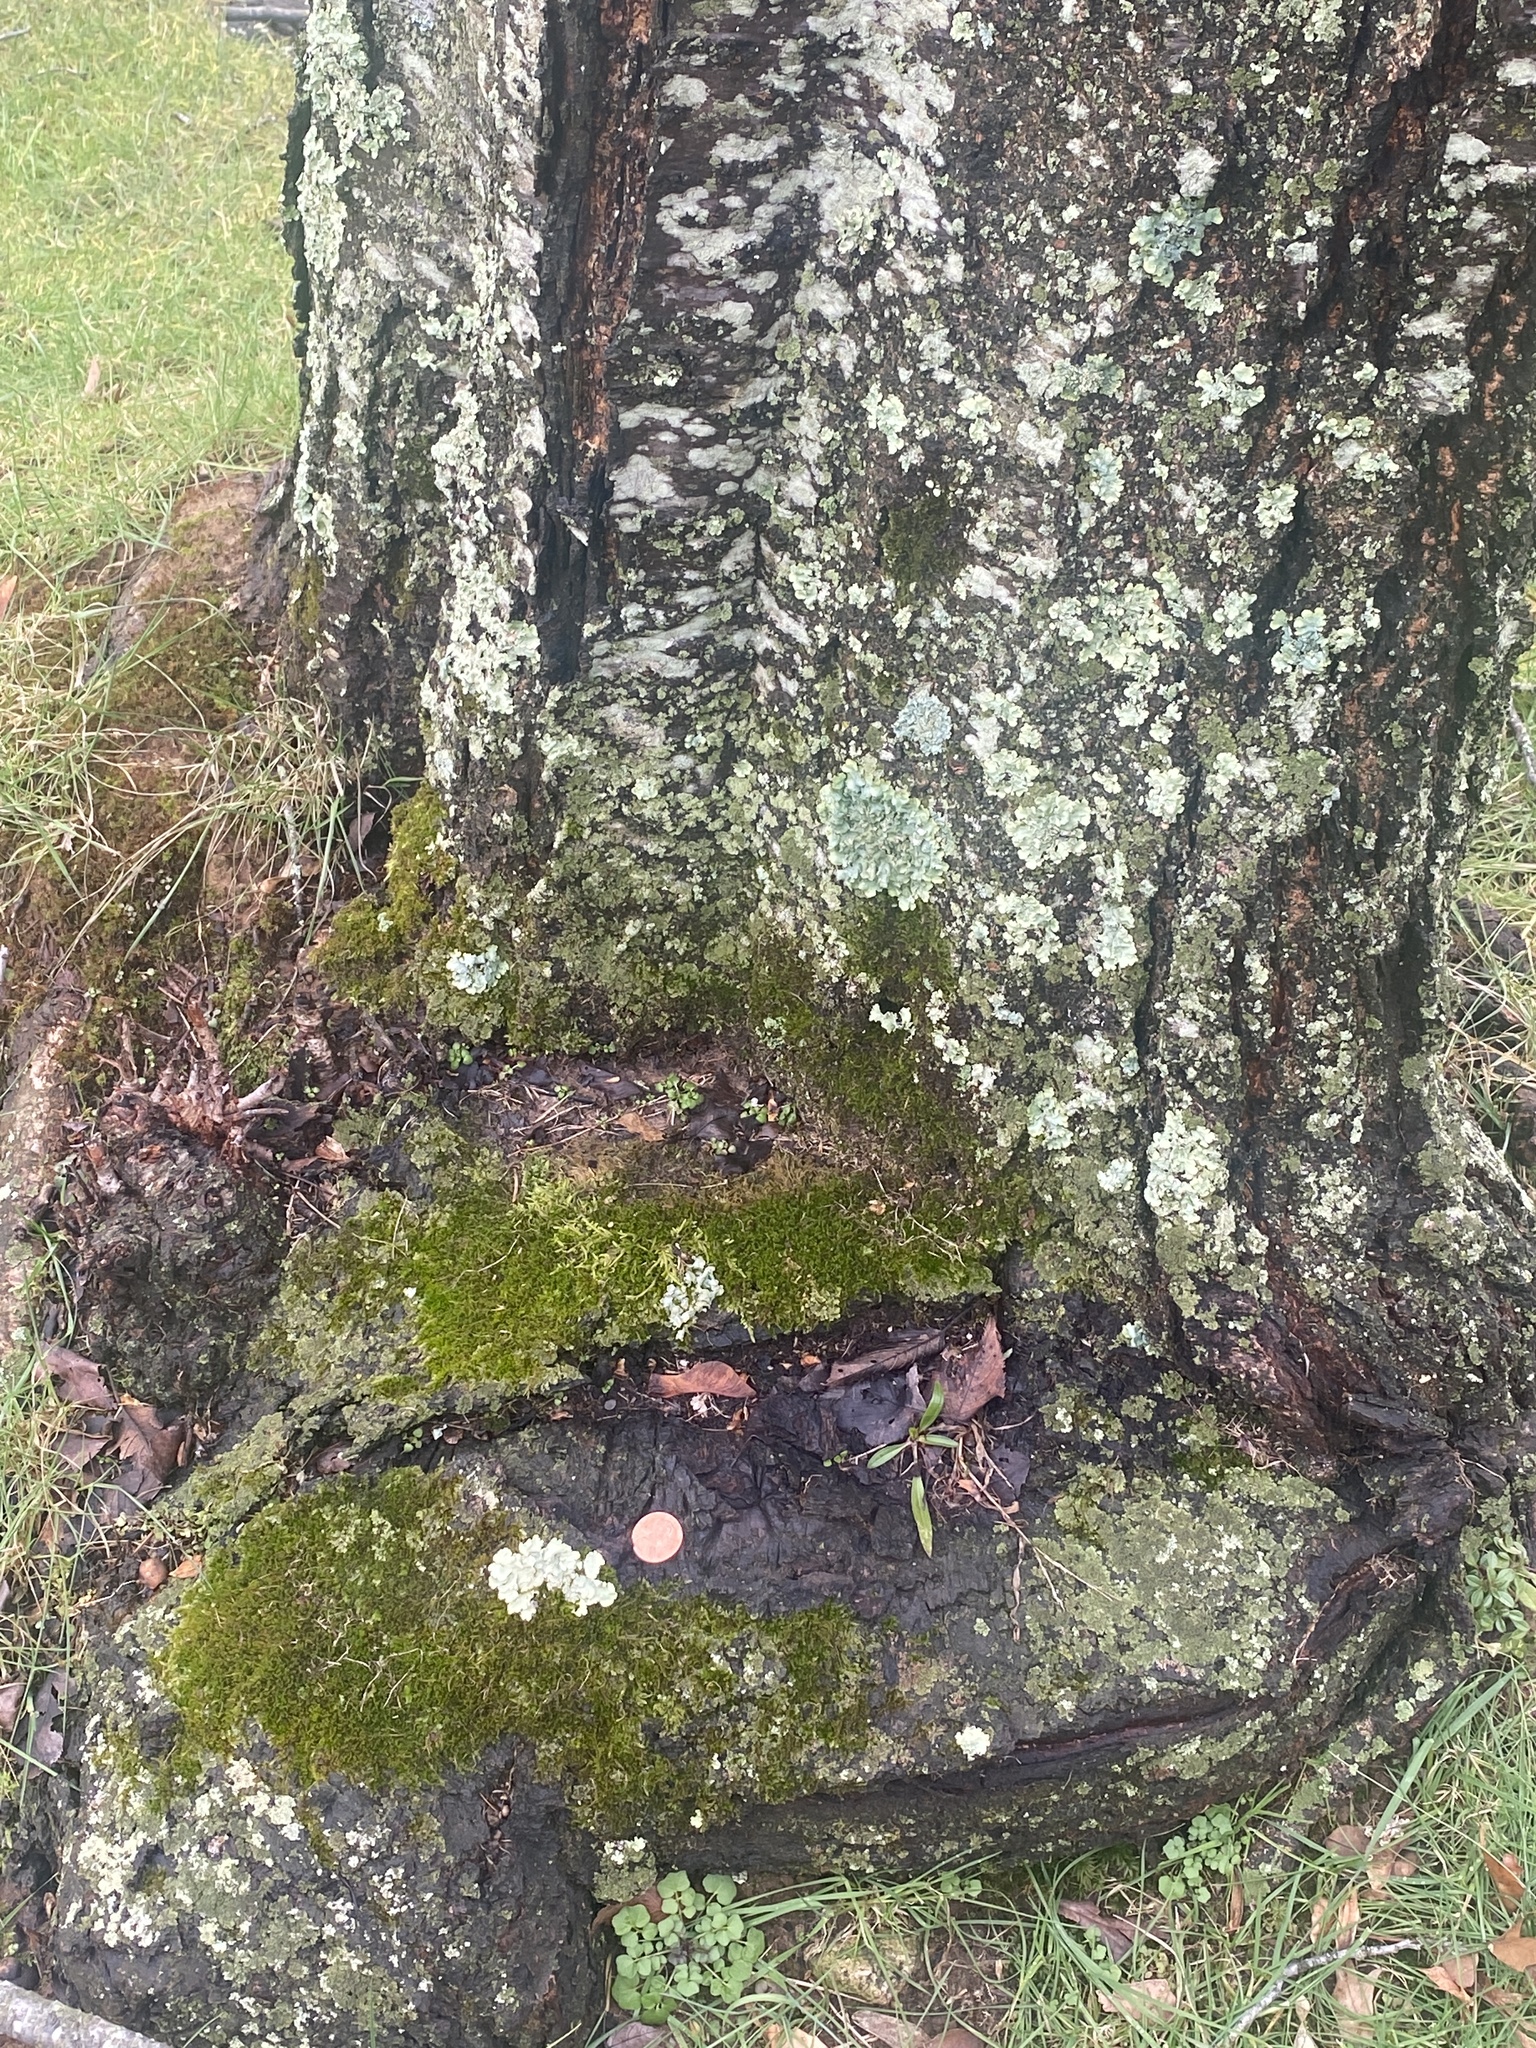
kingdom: Fungi
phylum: Ascomycota
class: Lecanoromycetes
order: Lecanorales
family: Parmeliaceae
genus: Flavoparmelia
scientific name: Flavoparmelia caperata
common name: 40-mile per hour lichen
